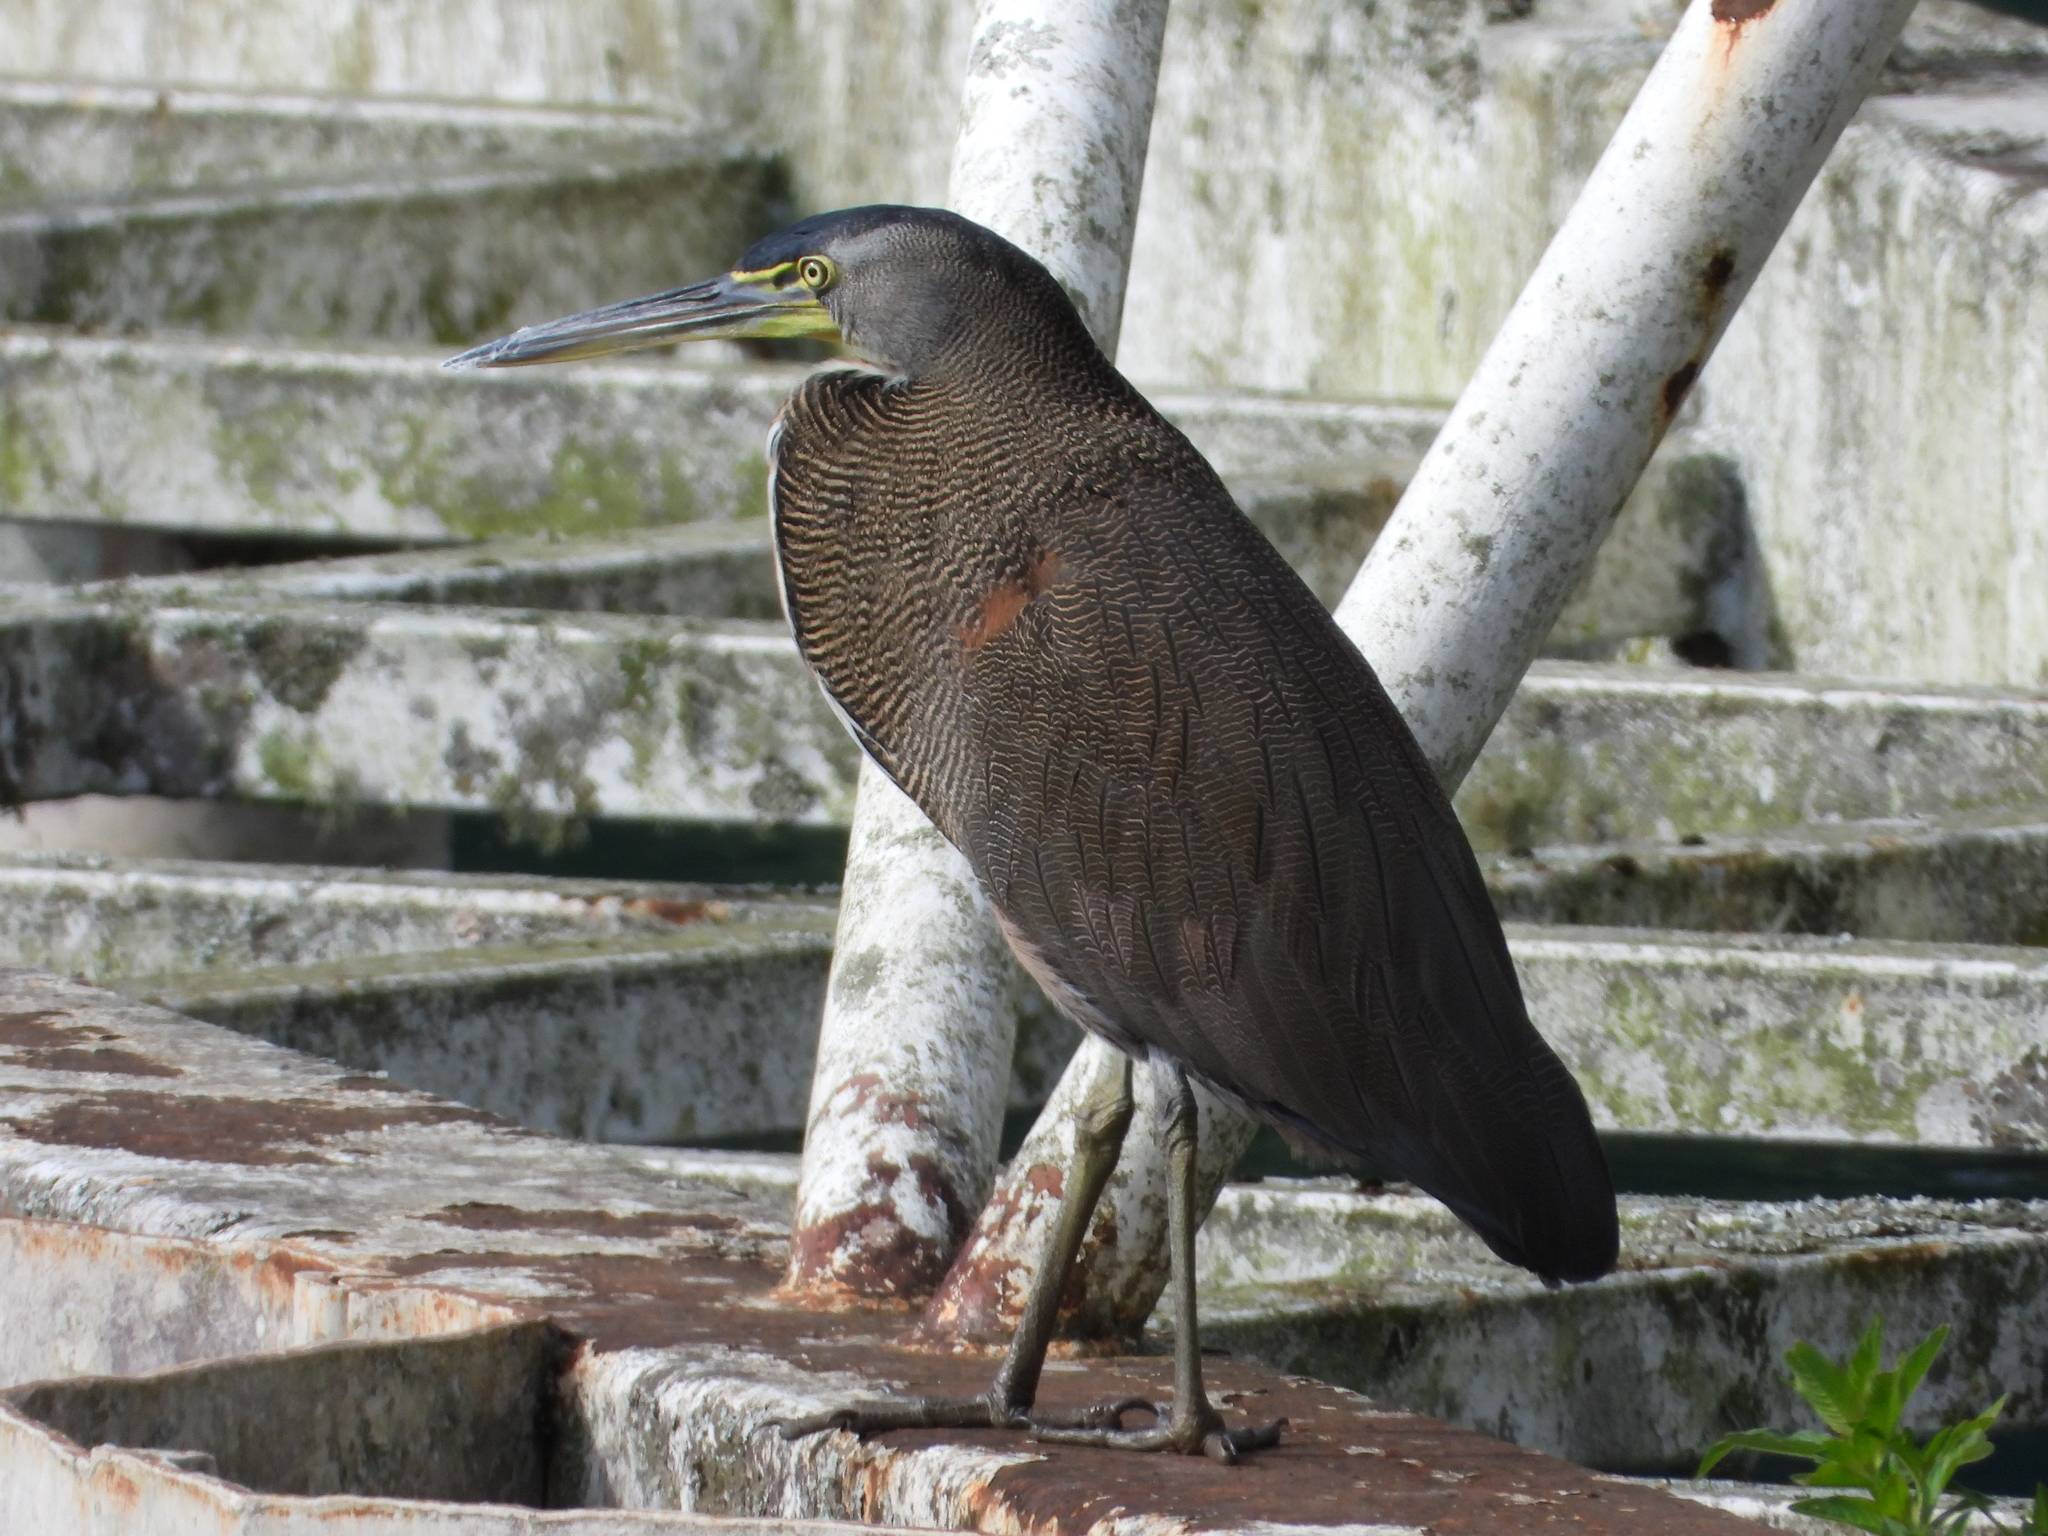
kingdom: Animalia
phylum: Chordata
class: Aves
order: Pelecaniformes
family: Ardeidae
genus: Tigrisoma
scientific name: Tigrisoma mexicanum
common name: Bare-throated tiger-heron
